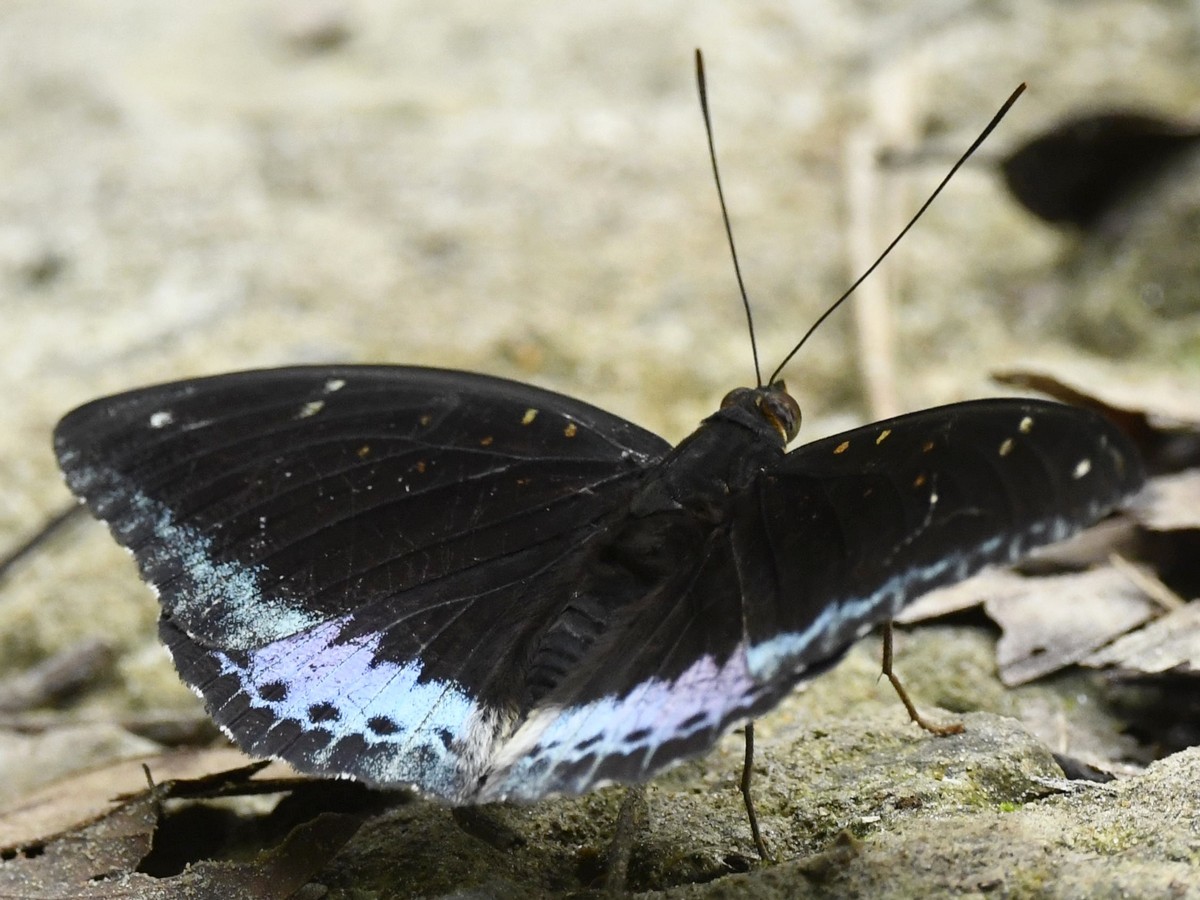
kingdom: Animalia
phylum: Arthropoda
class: Insecta
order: Lepidoptera
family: Nymphalidae
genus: Lexias
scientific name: Lexias dirtea
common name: Black-tipped archduke
